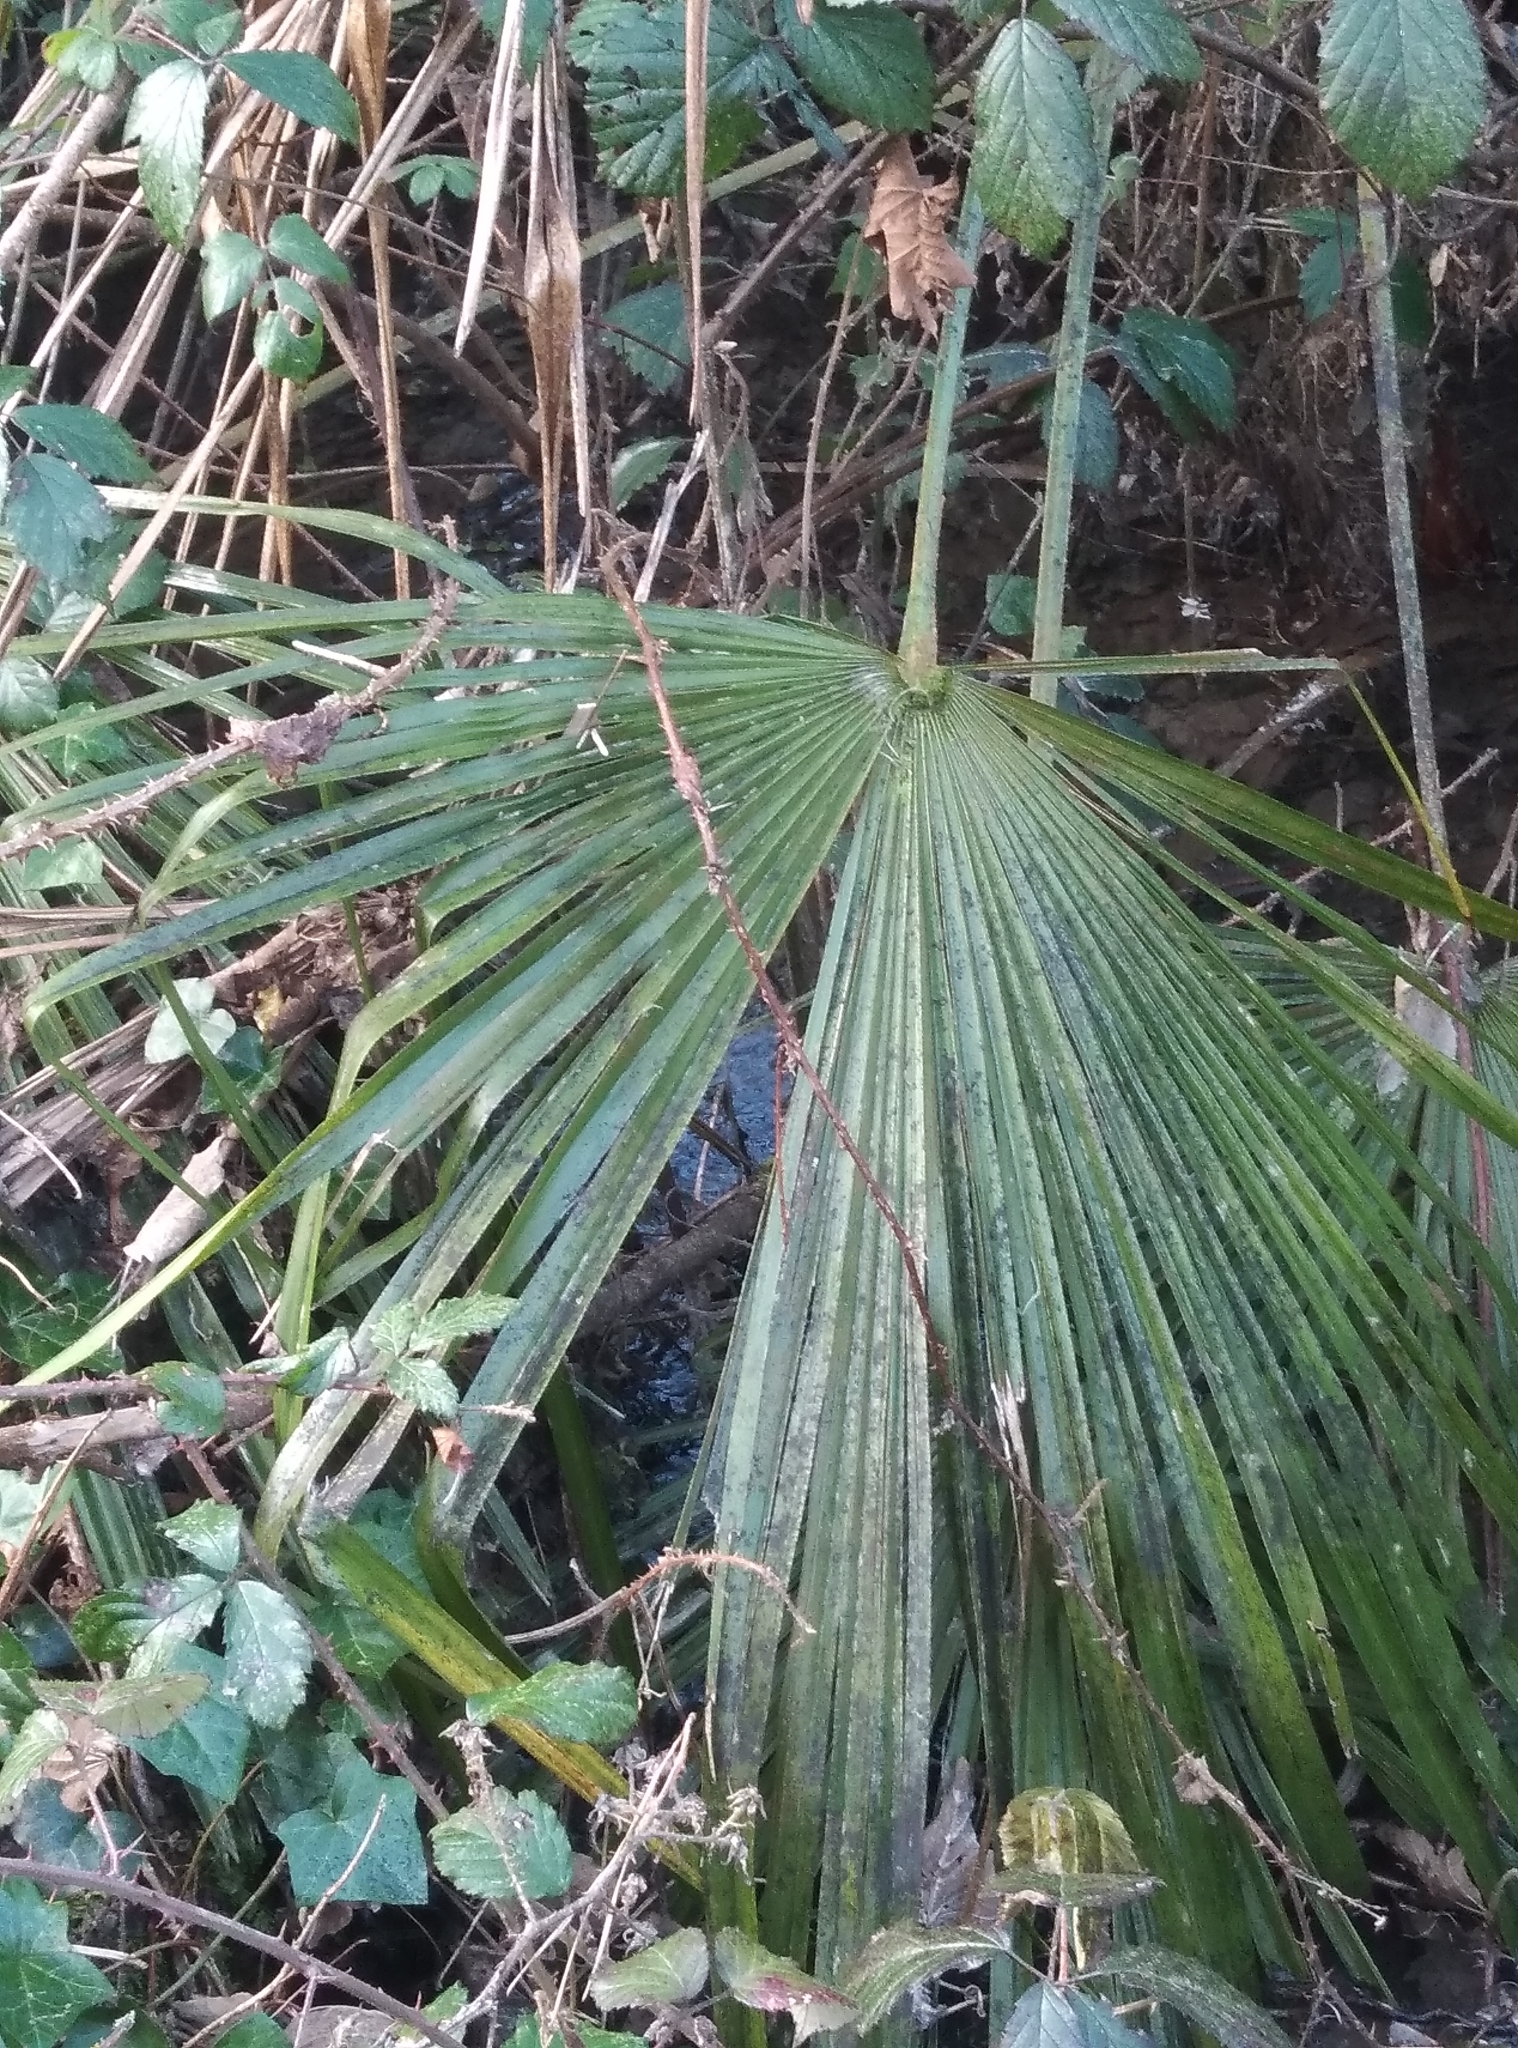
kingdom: Plantae
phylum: Tracheophyta
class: Liliopsida
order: Arecales
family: Arecaceae
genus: Trachycarpus
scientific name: Trachycarpus fortunei
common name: Chusan palm
